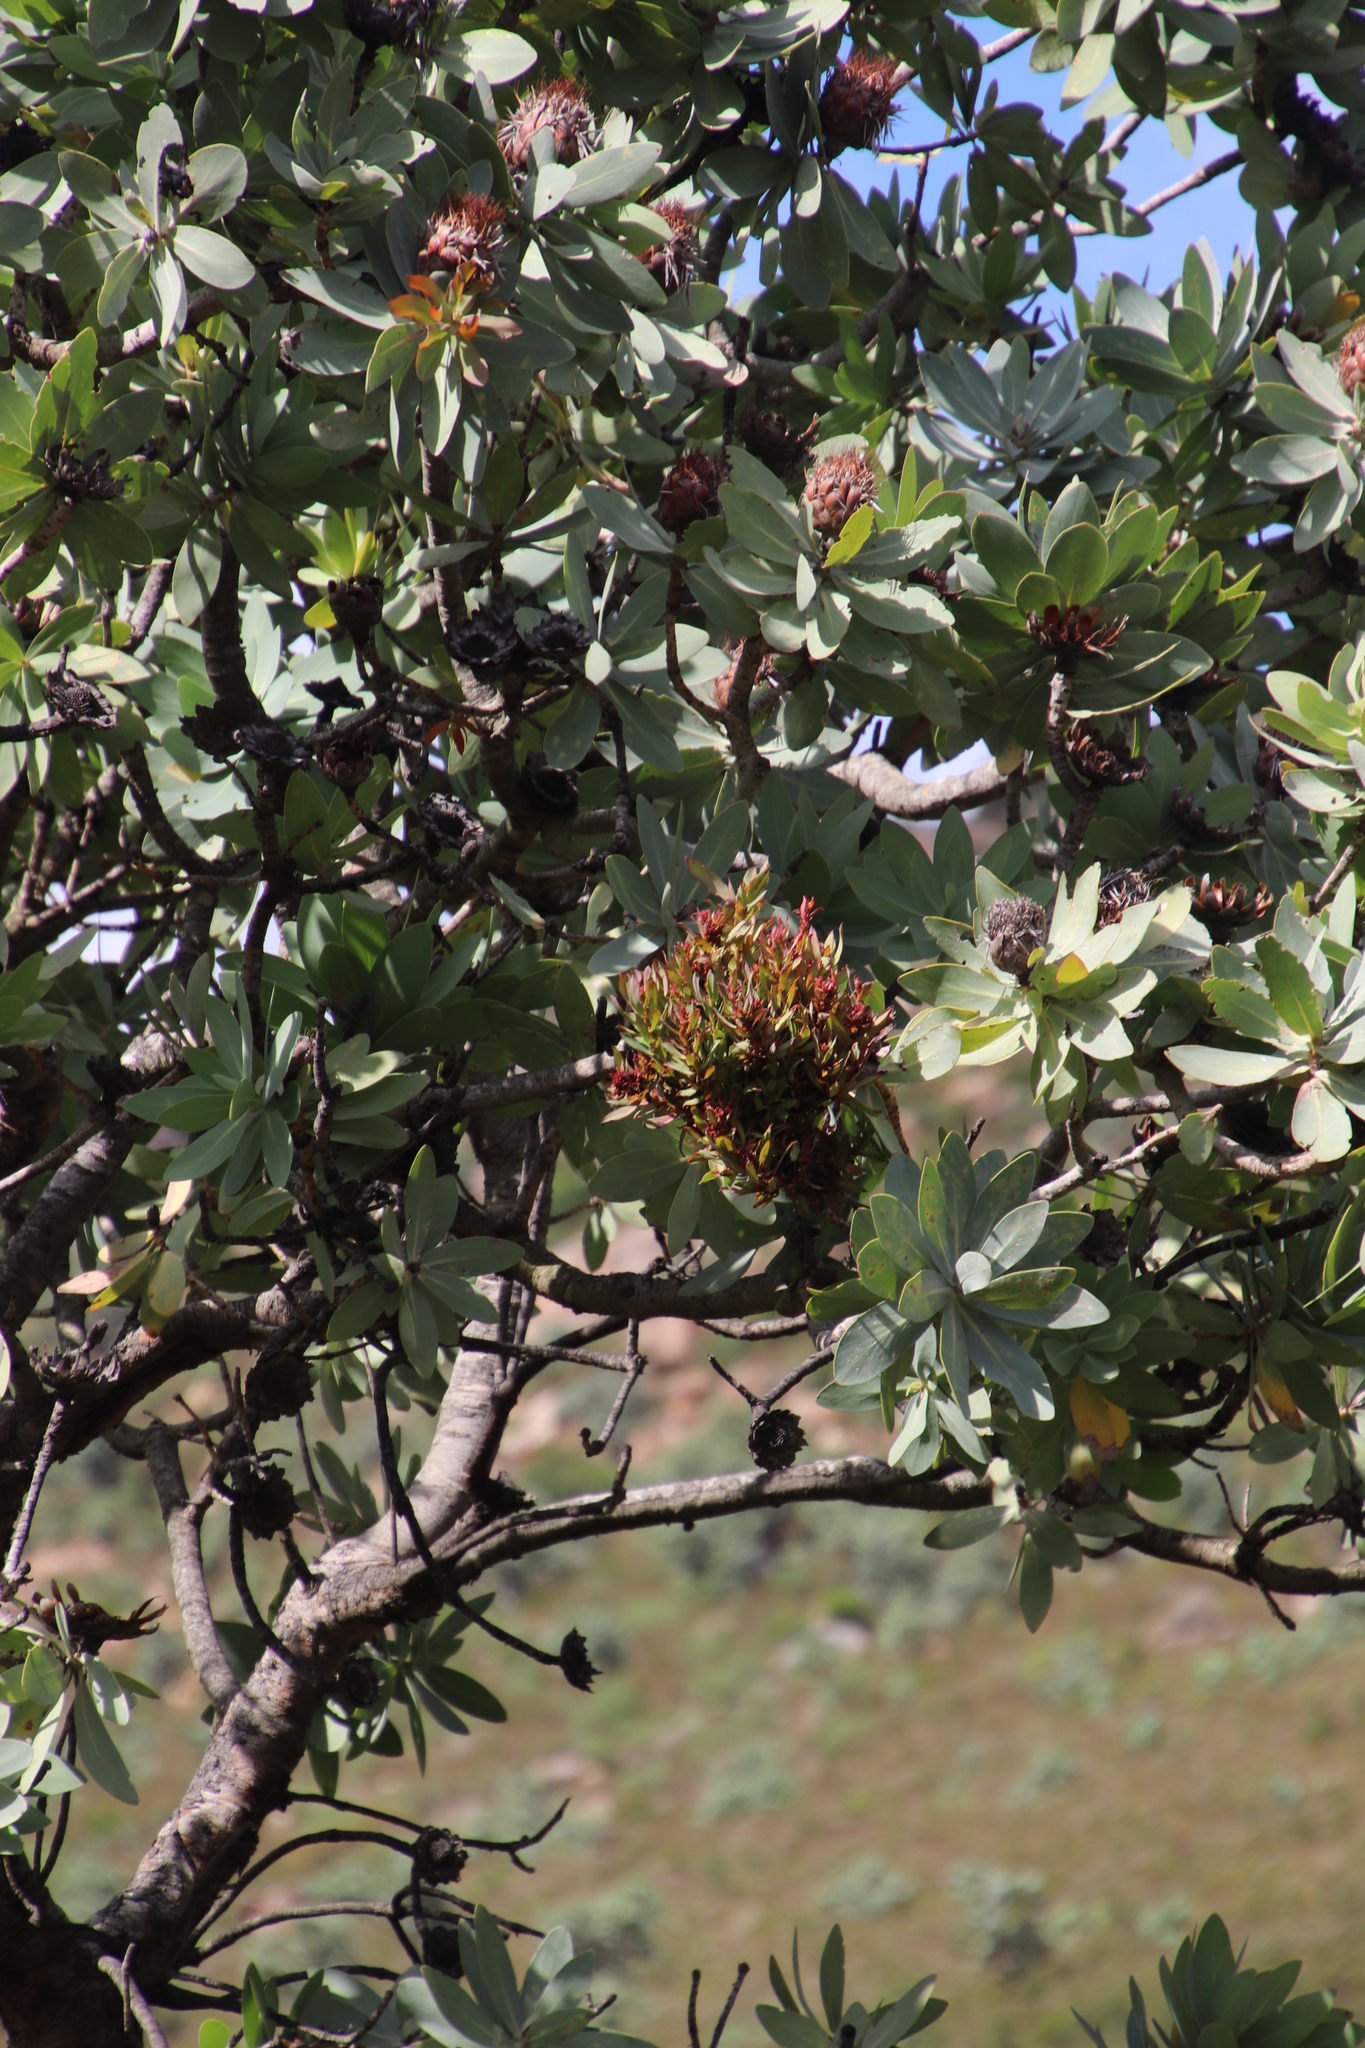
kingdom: Bacteria
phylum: Firmicutes
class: Bacilli
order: Acholeplasmatales
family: Acholeplasmataceae
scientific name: Acholeplasmataceae
